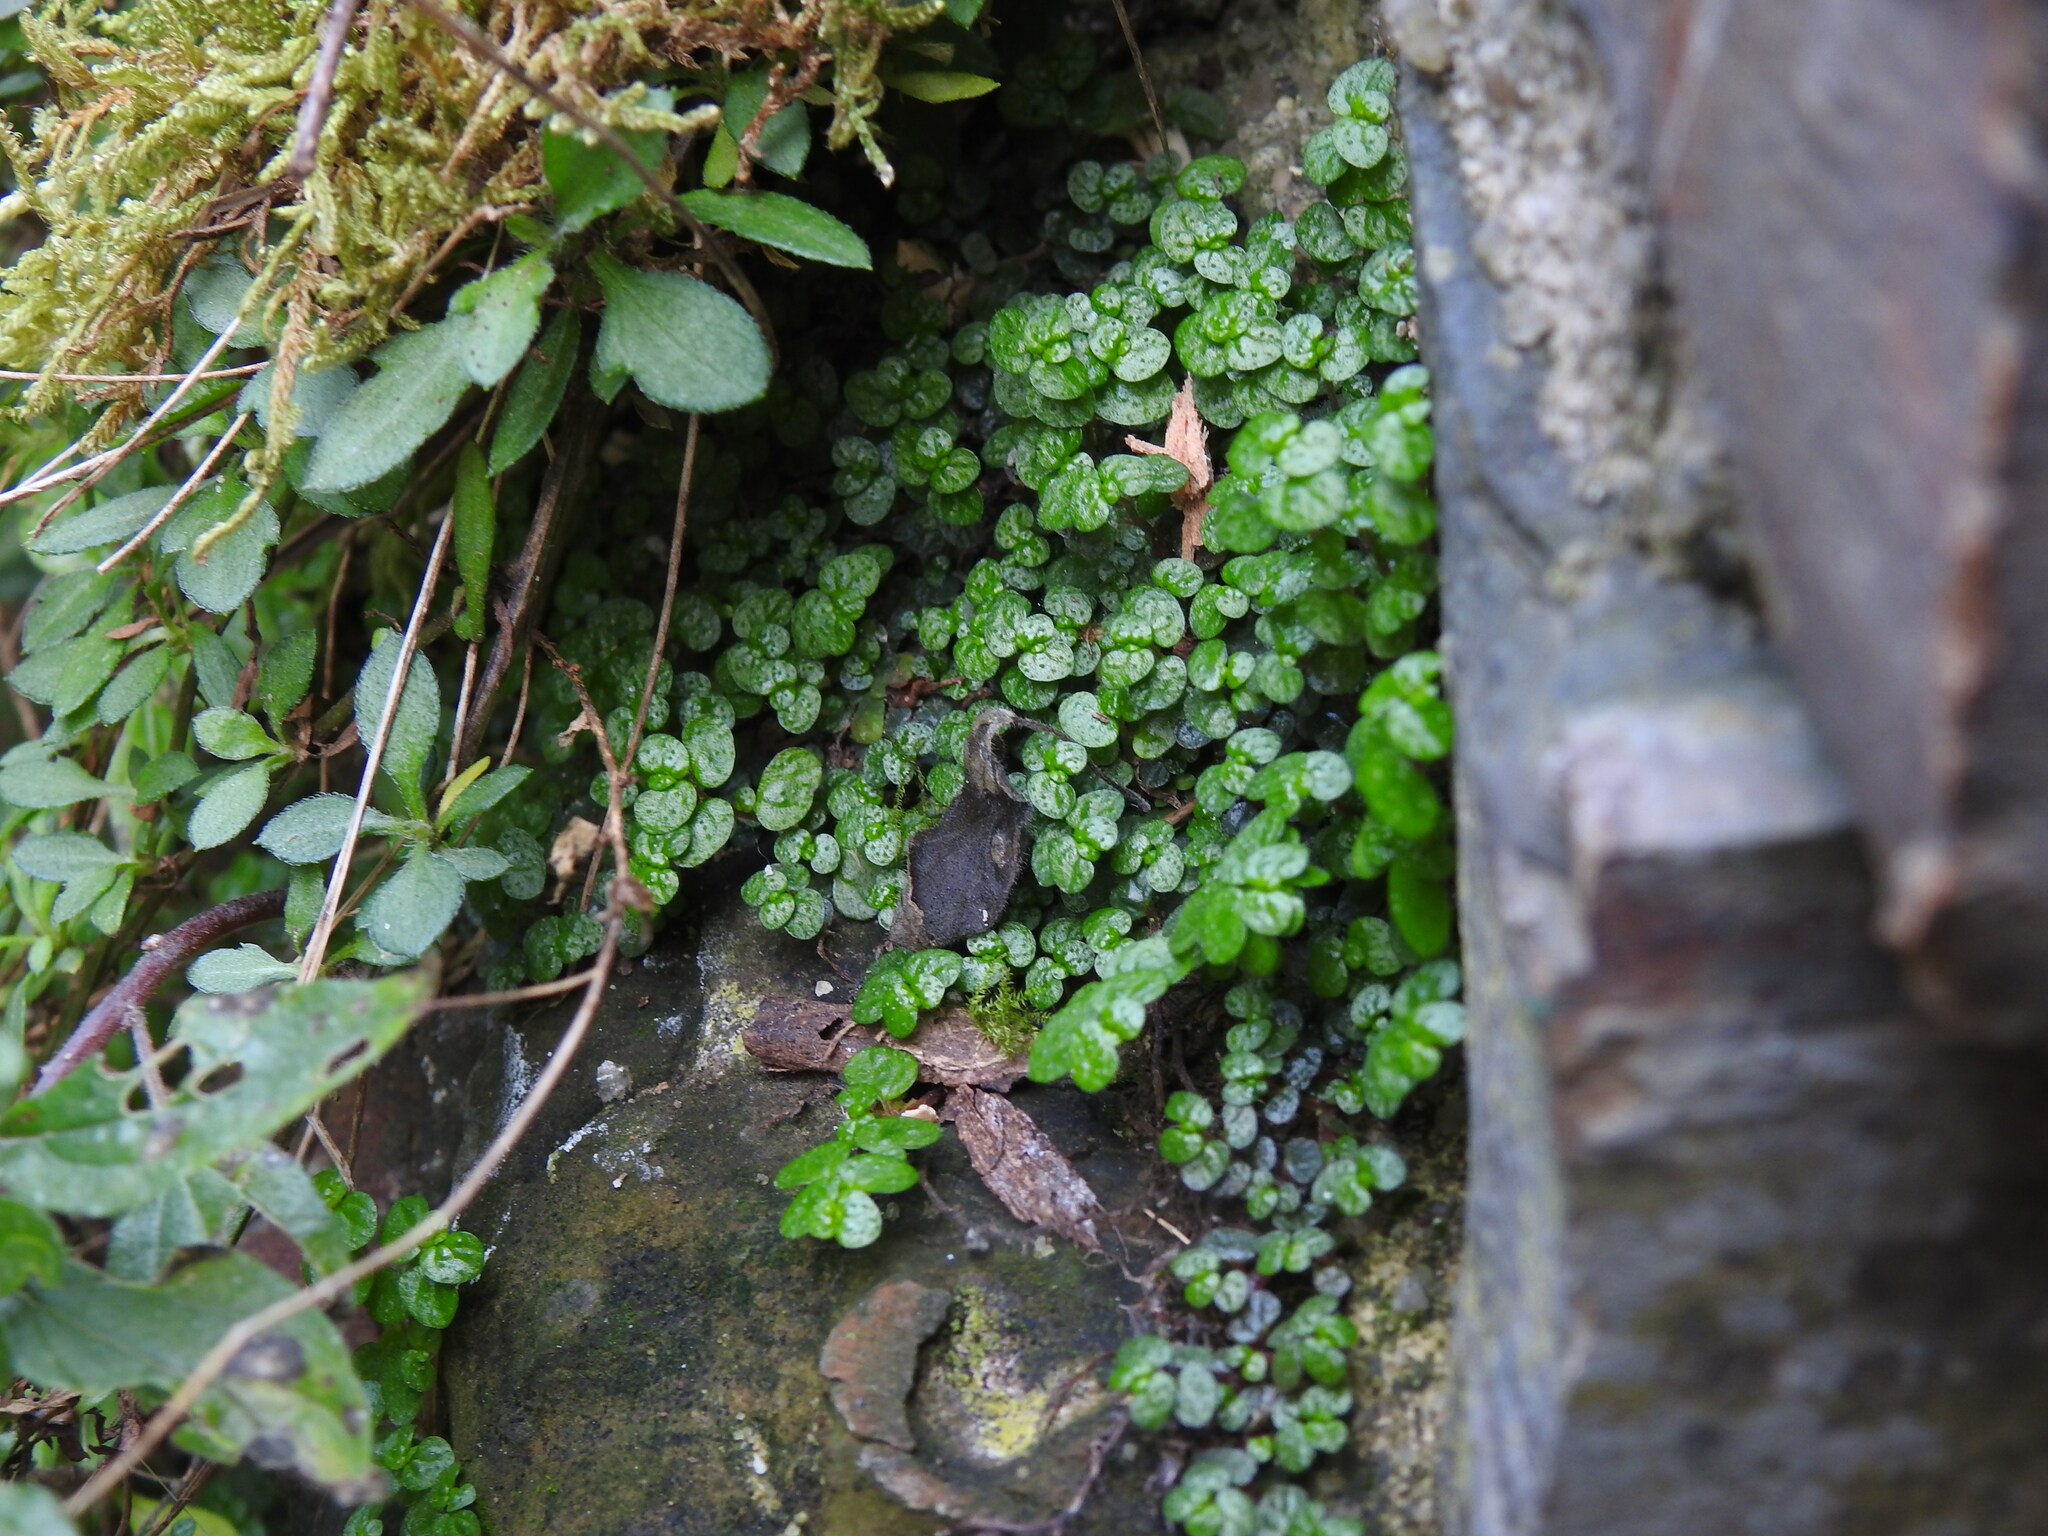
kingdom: Plantae
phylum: Tracheophyta
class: Magnoliopsida
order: Rosales
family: Urticaceae
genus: Soleirolia
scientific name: Soleirolia soleirolii
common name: Mind-your-own-business
